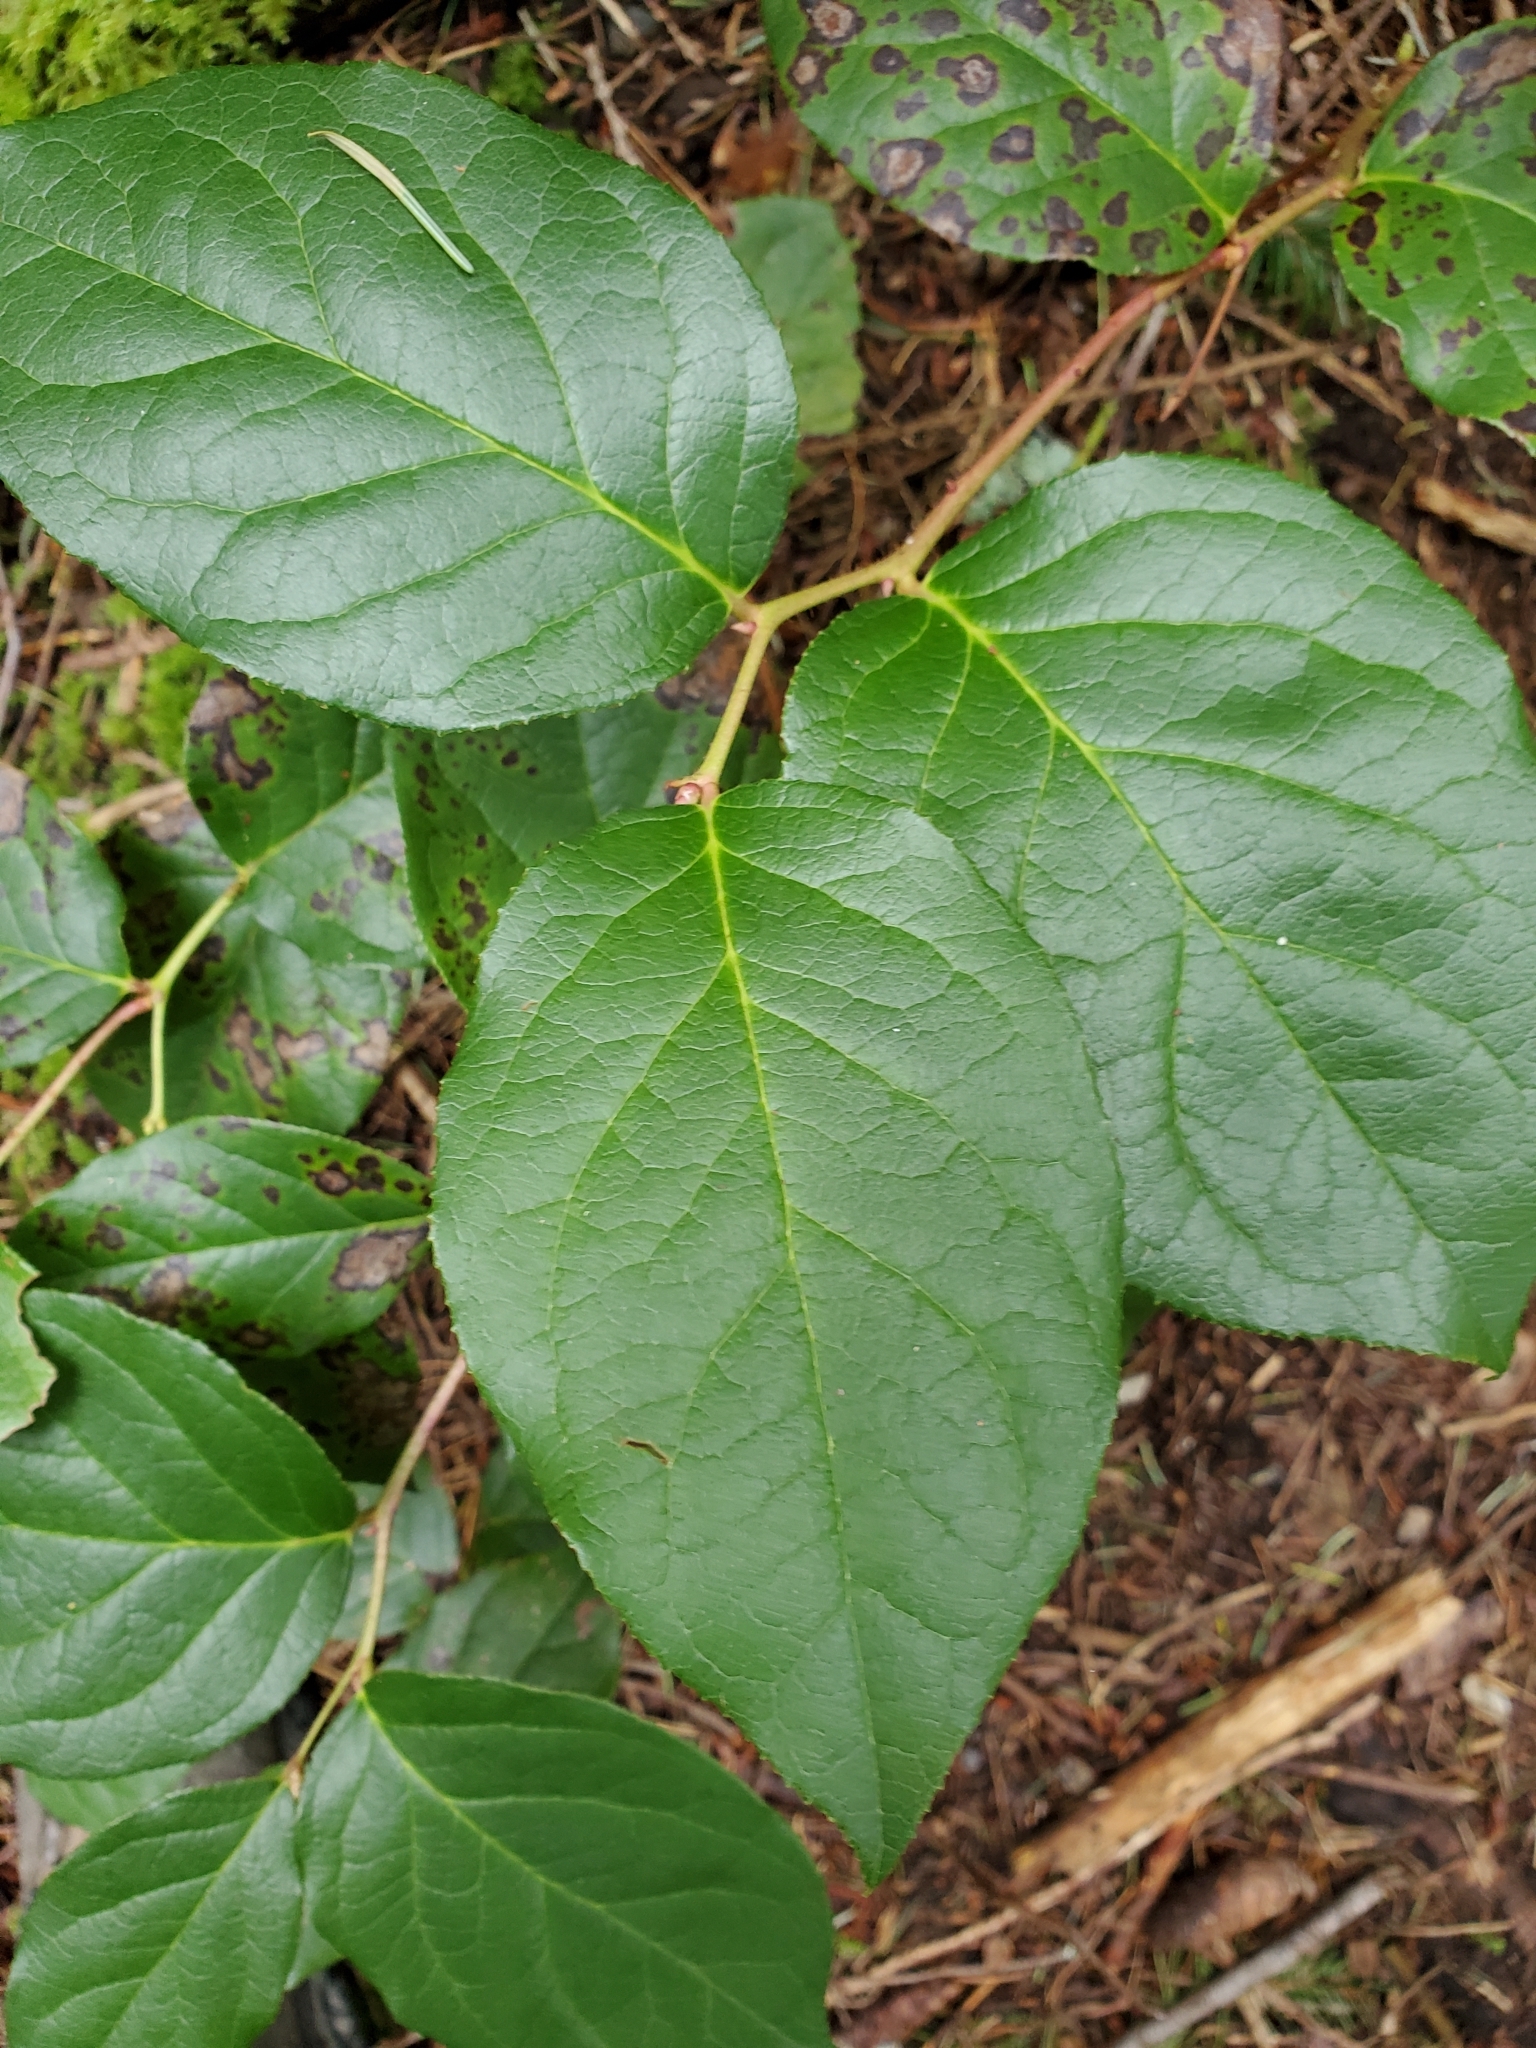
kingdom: Plantae
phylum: Tracheophyta
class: Magnoliopsida
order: Ericales
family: Ericaceae
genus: Gaultheria
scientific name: Gaultheria shallon
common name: Shallon
